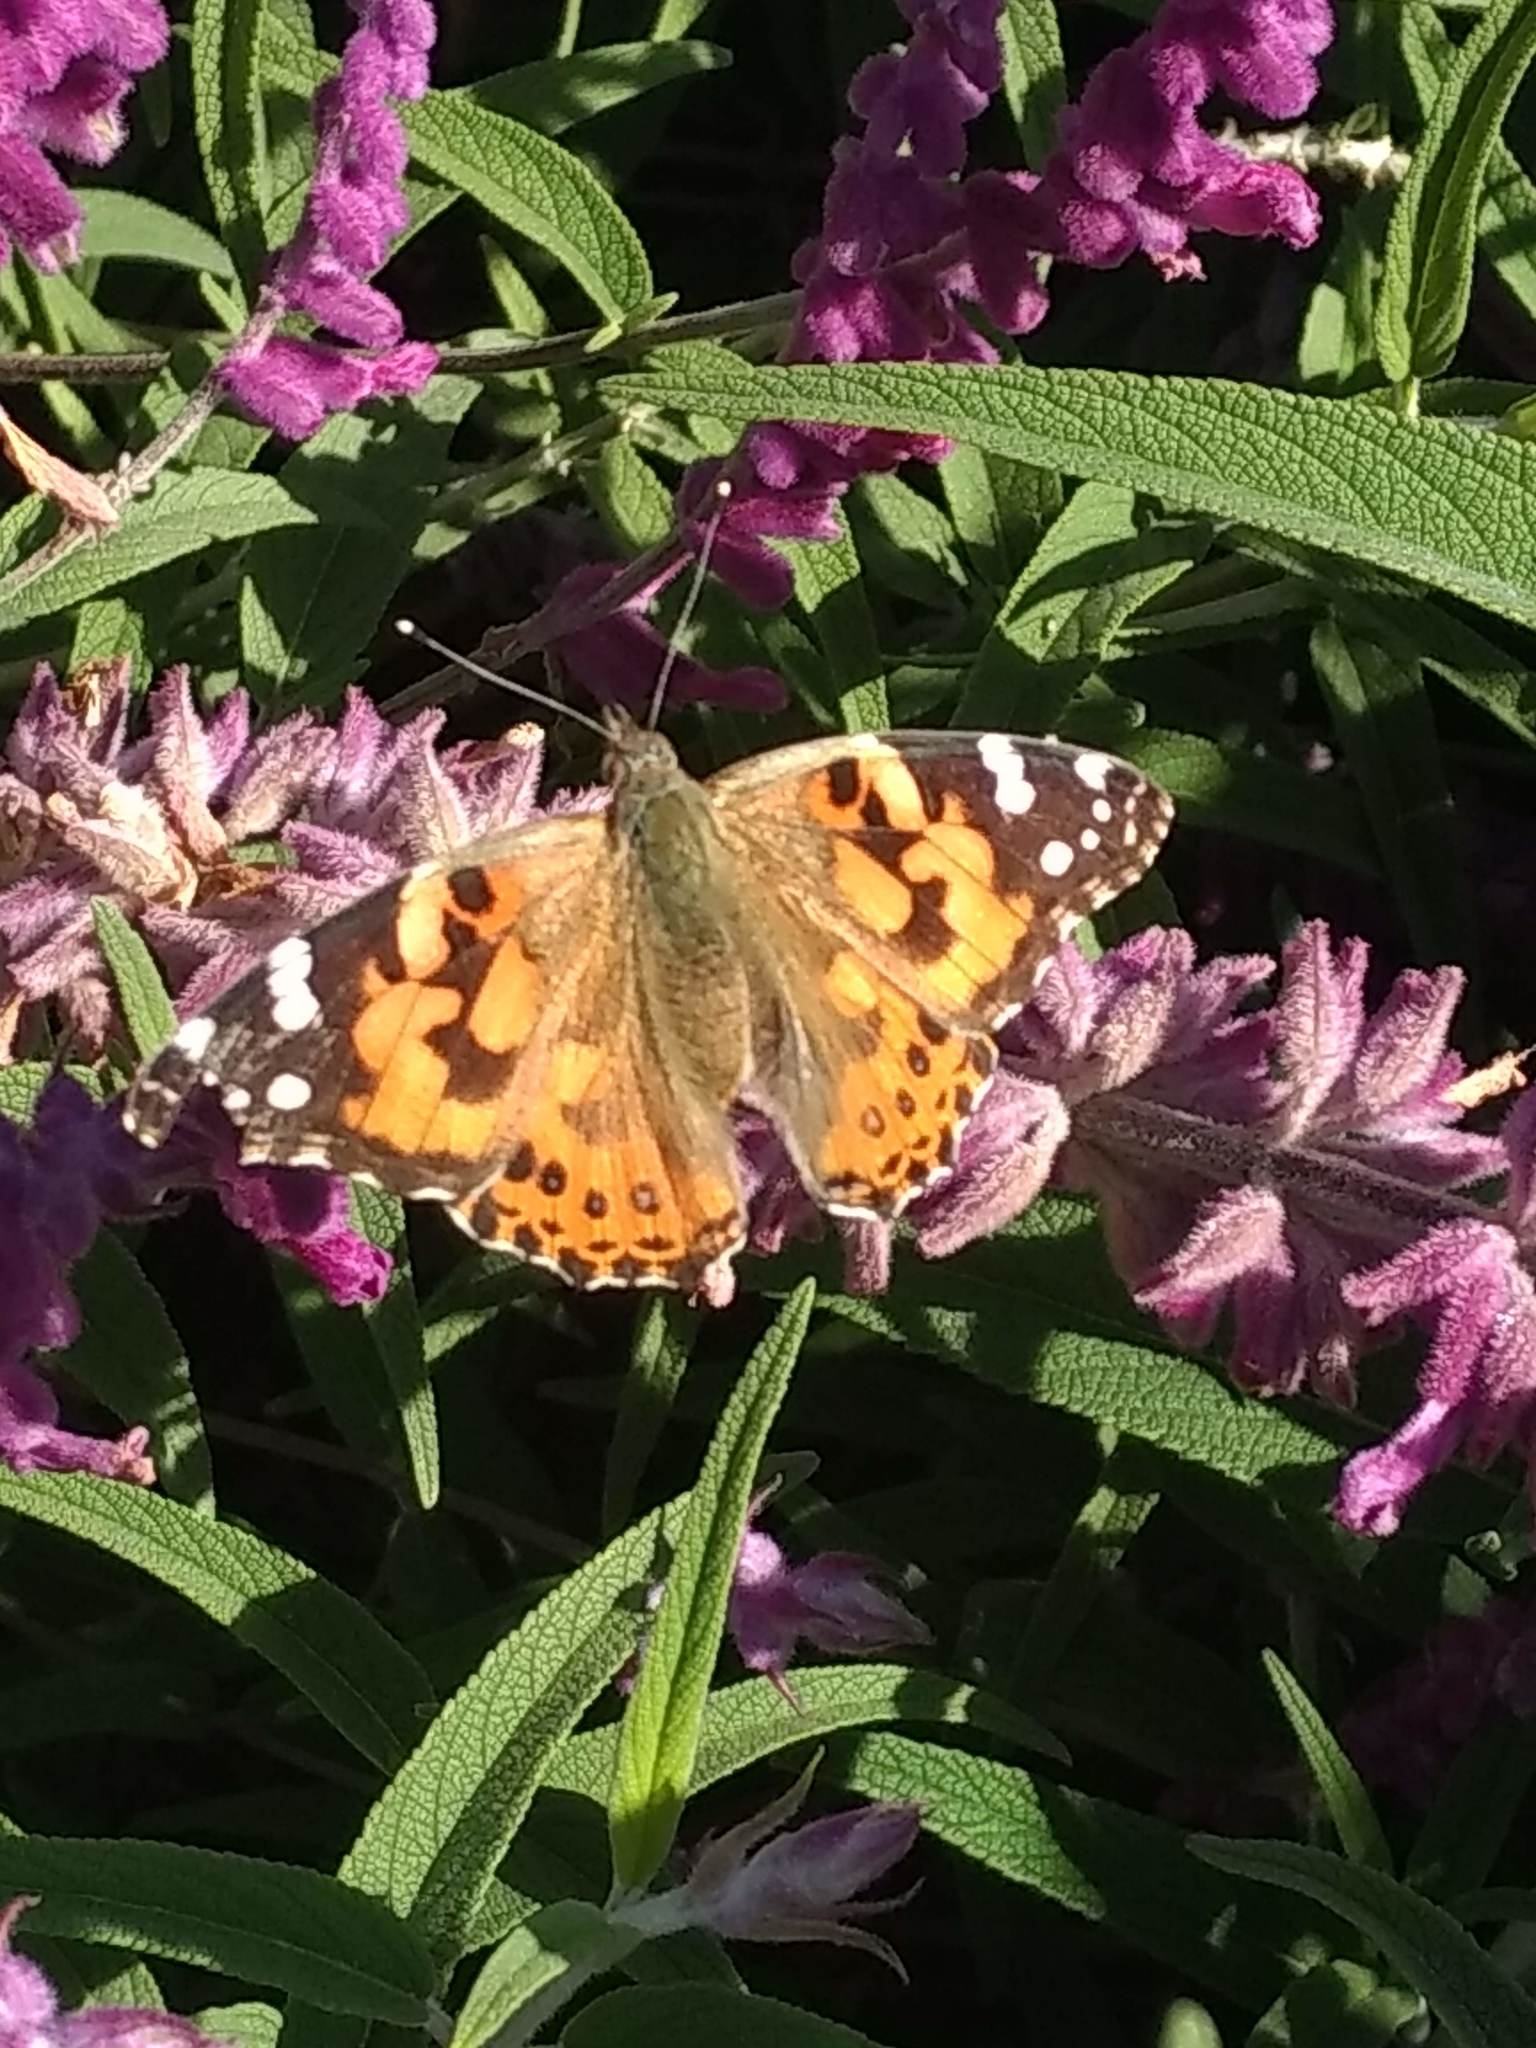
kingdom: Animalia
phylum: Arthropoda
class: Insecta
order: Lepidoptera
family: Nymphalidae
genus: Vanessa
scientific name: Vanessa cardui
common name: Painted lady
